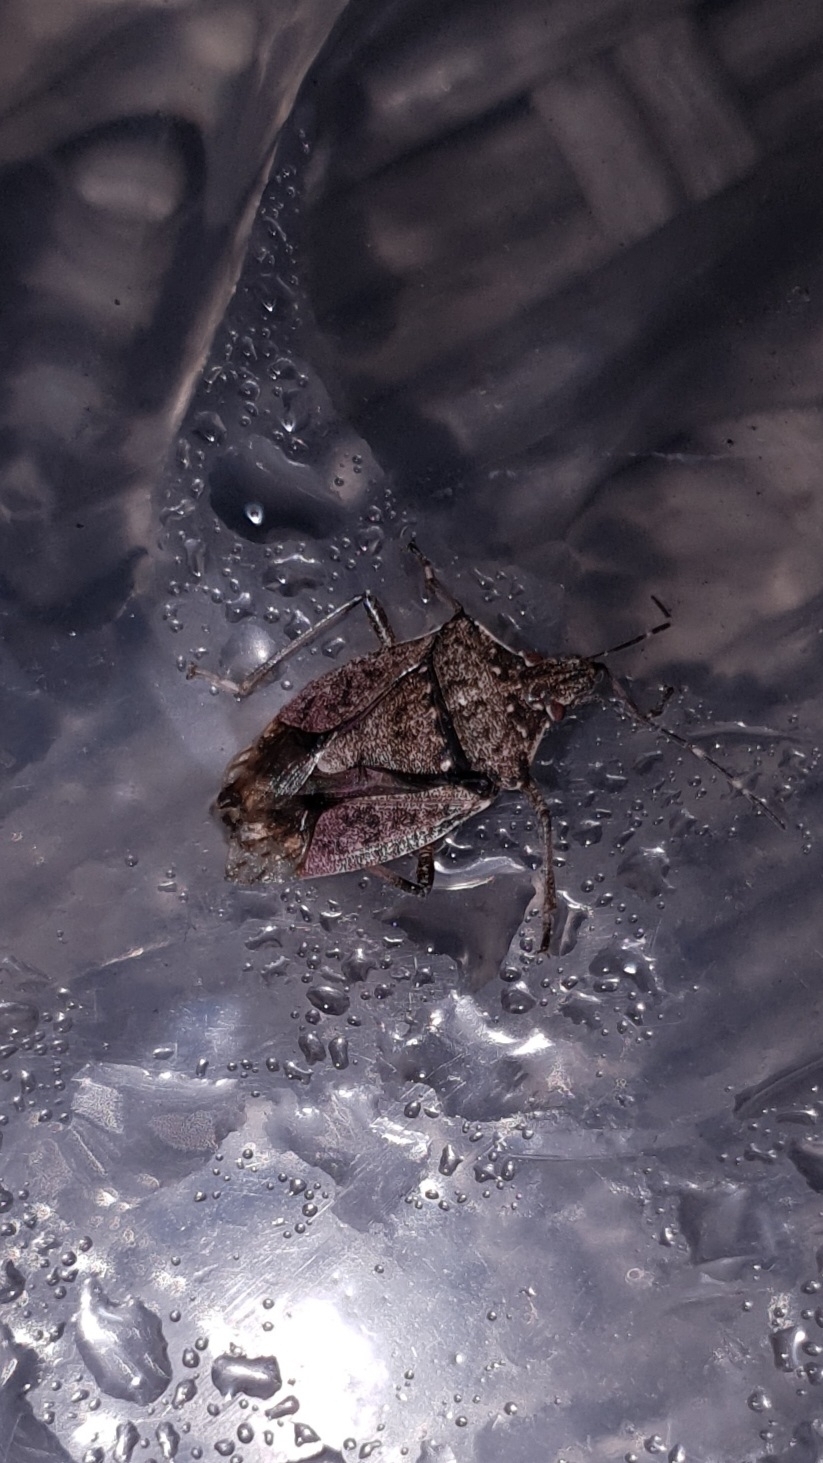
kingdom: Animalia
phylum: Arthropoda
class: Insecta
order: Hemiptera
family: Pentatomidae
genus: Halyomorpha
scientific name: Halyomorpha halys
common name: Brown marmorated stink bug
